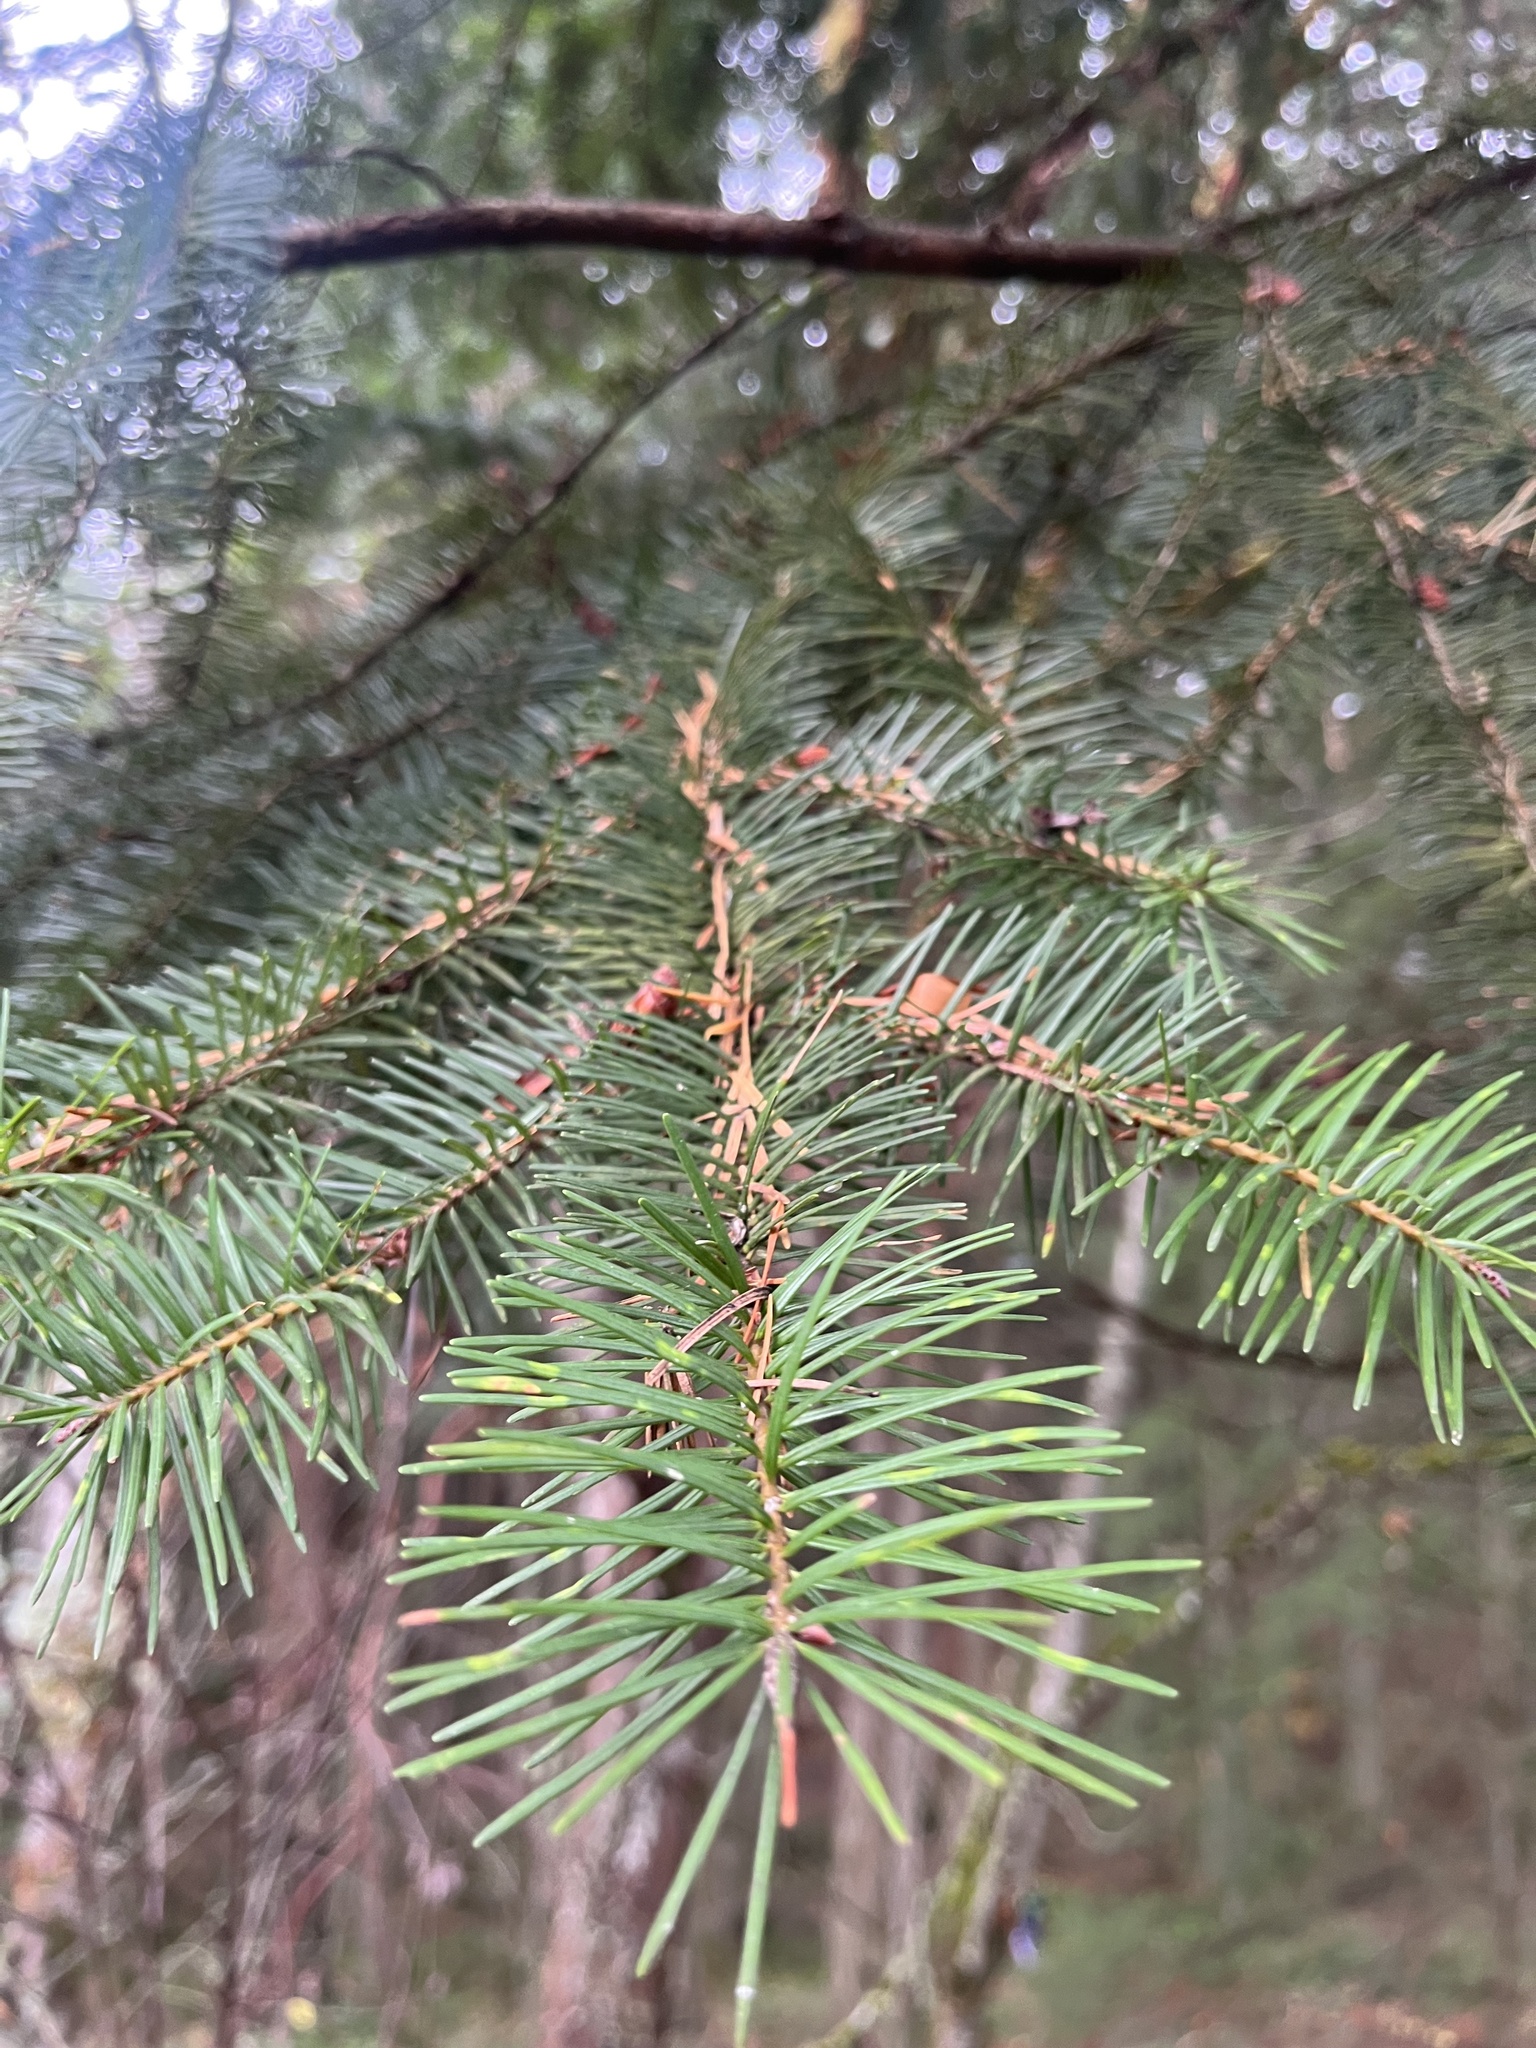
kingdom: Plantae
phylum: Tracheophyta
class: Pinopsida
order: Pinales
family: Pinaceae
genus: Pseudotsuga
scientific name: Pseudotsuga menziesii
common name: Douglas fir
